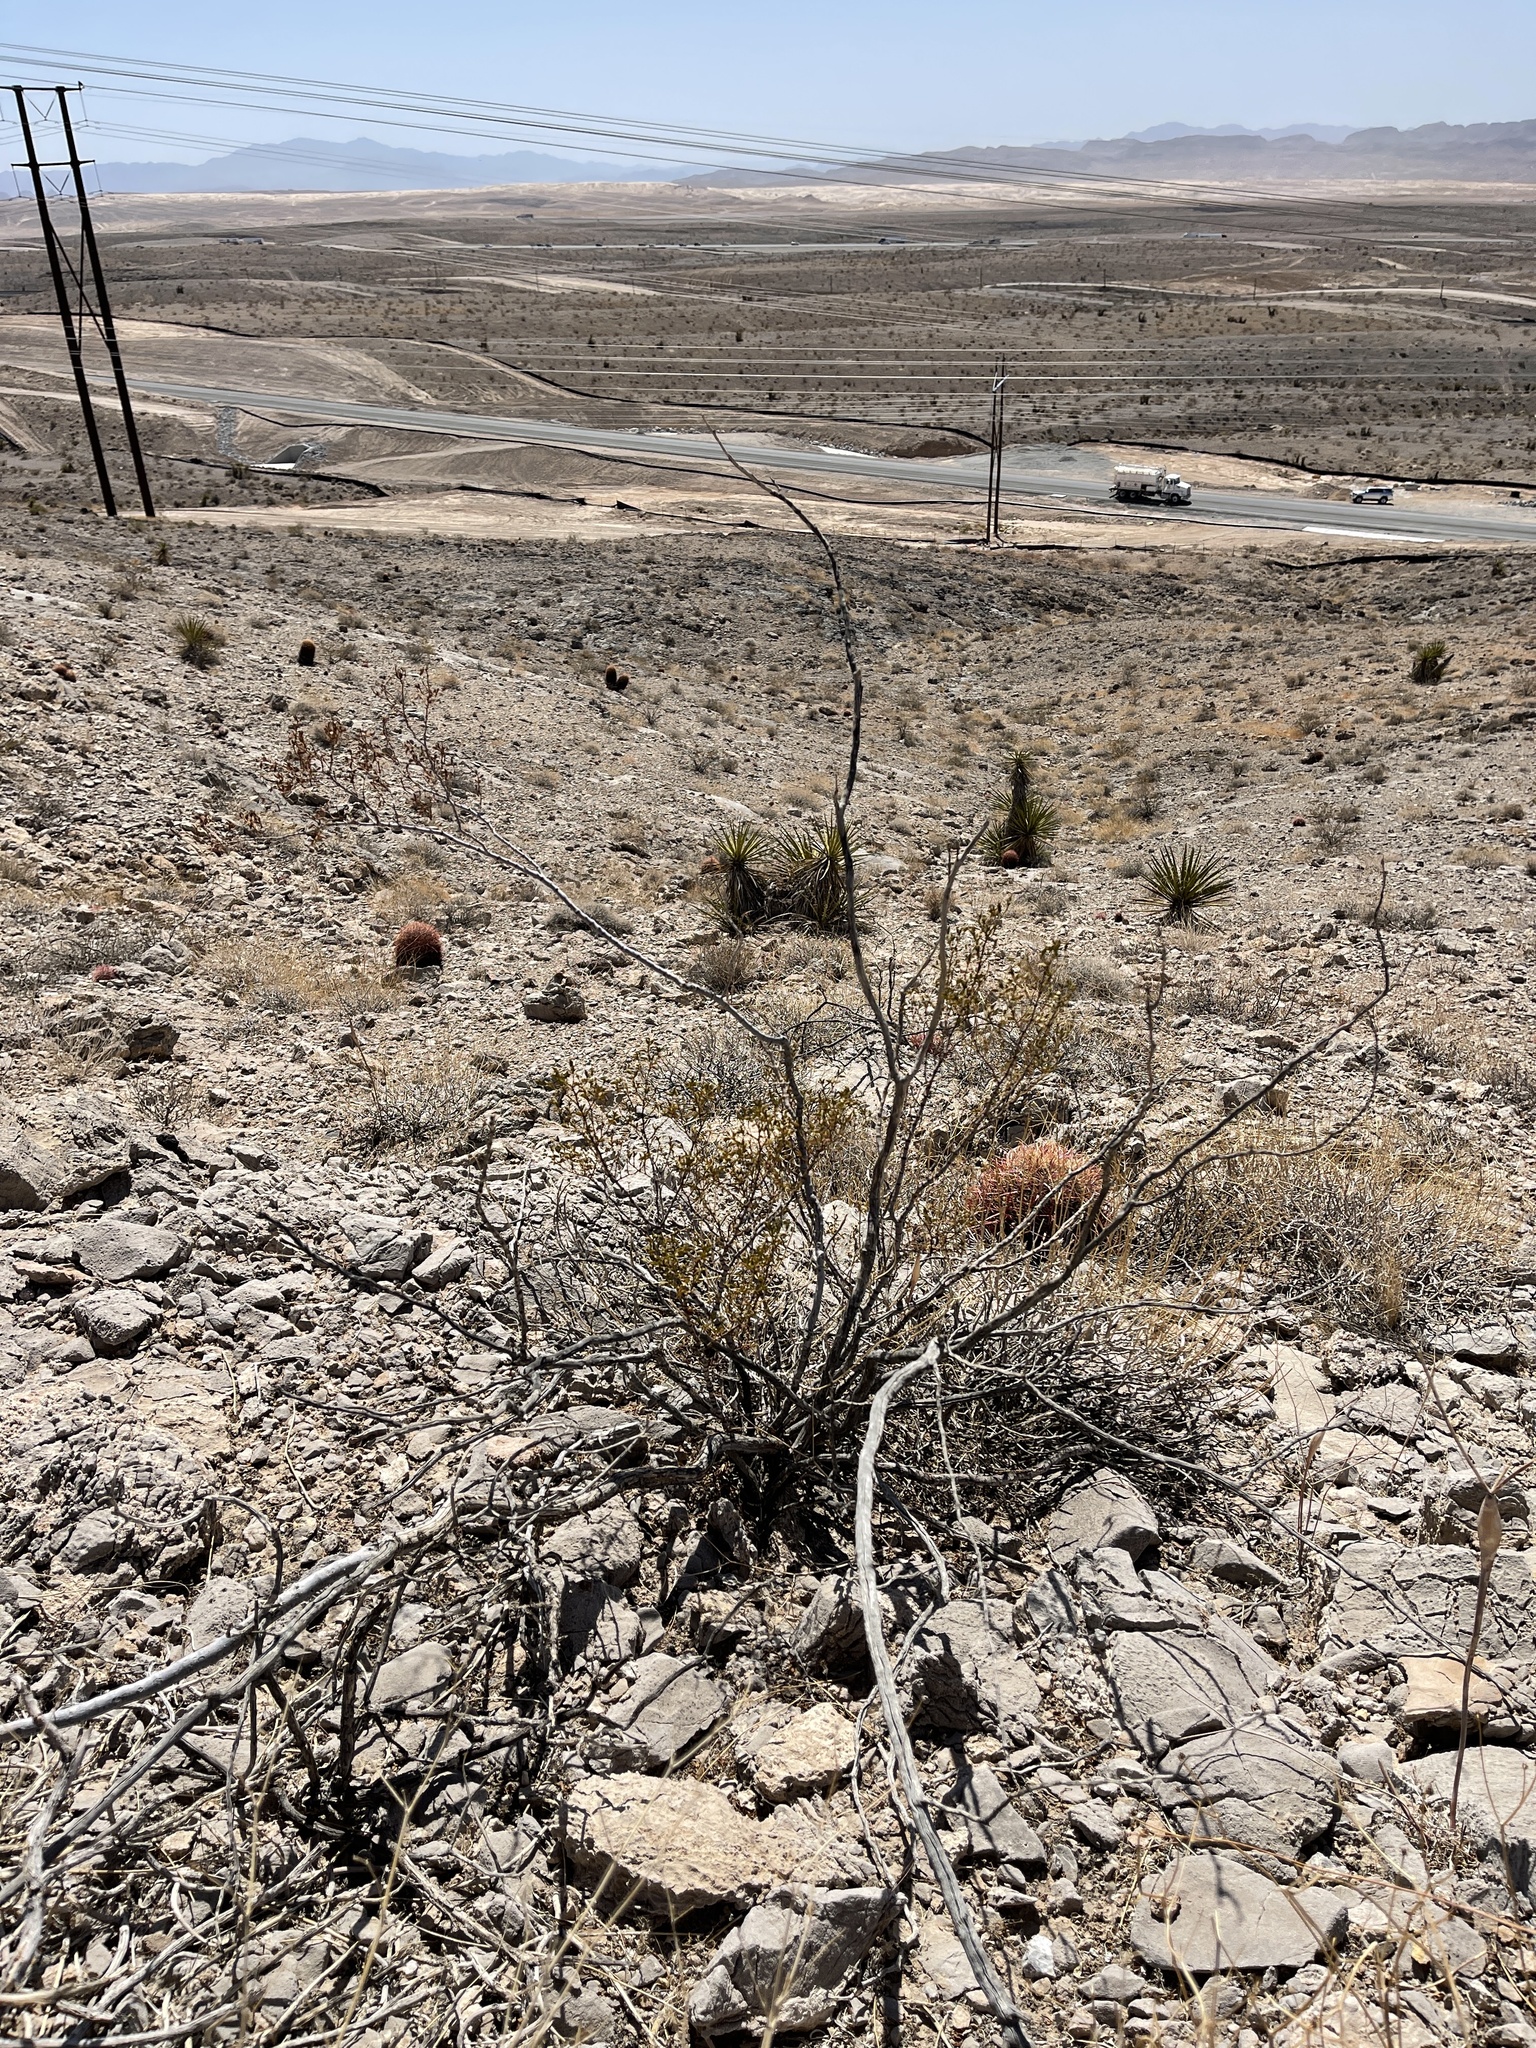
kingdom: Plantae
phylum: Tracheophyta
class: Magnoliopsida
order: Zygophyllales
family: Zygophyllaceae
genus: Larrea
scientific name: Larrea tridentata
